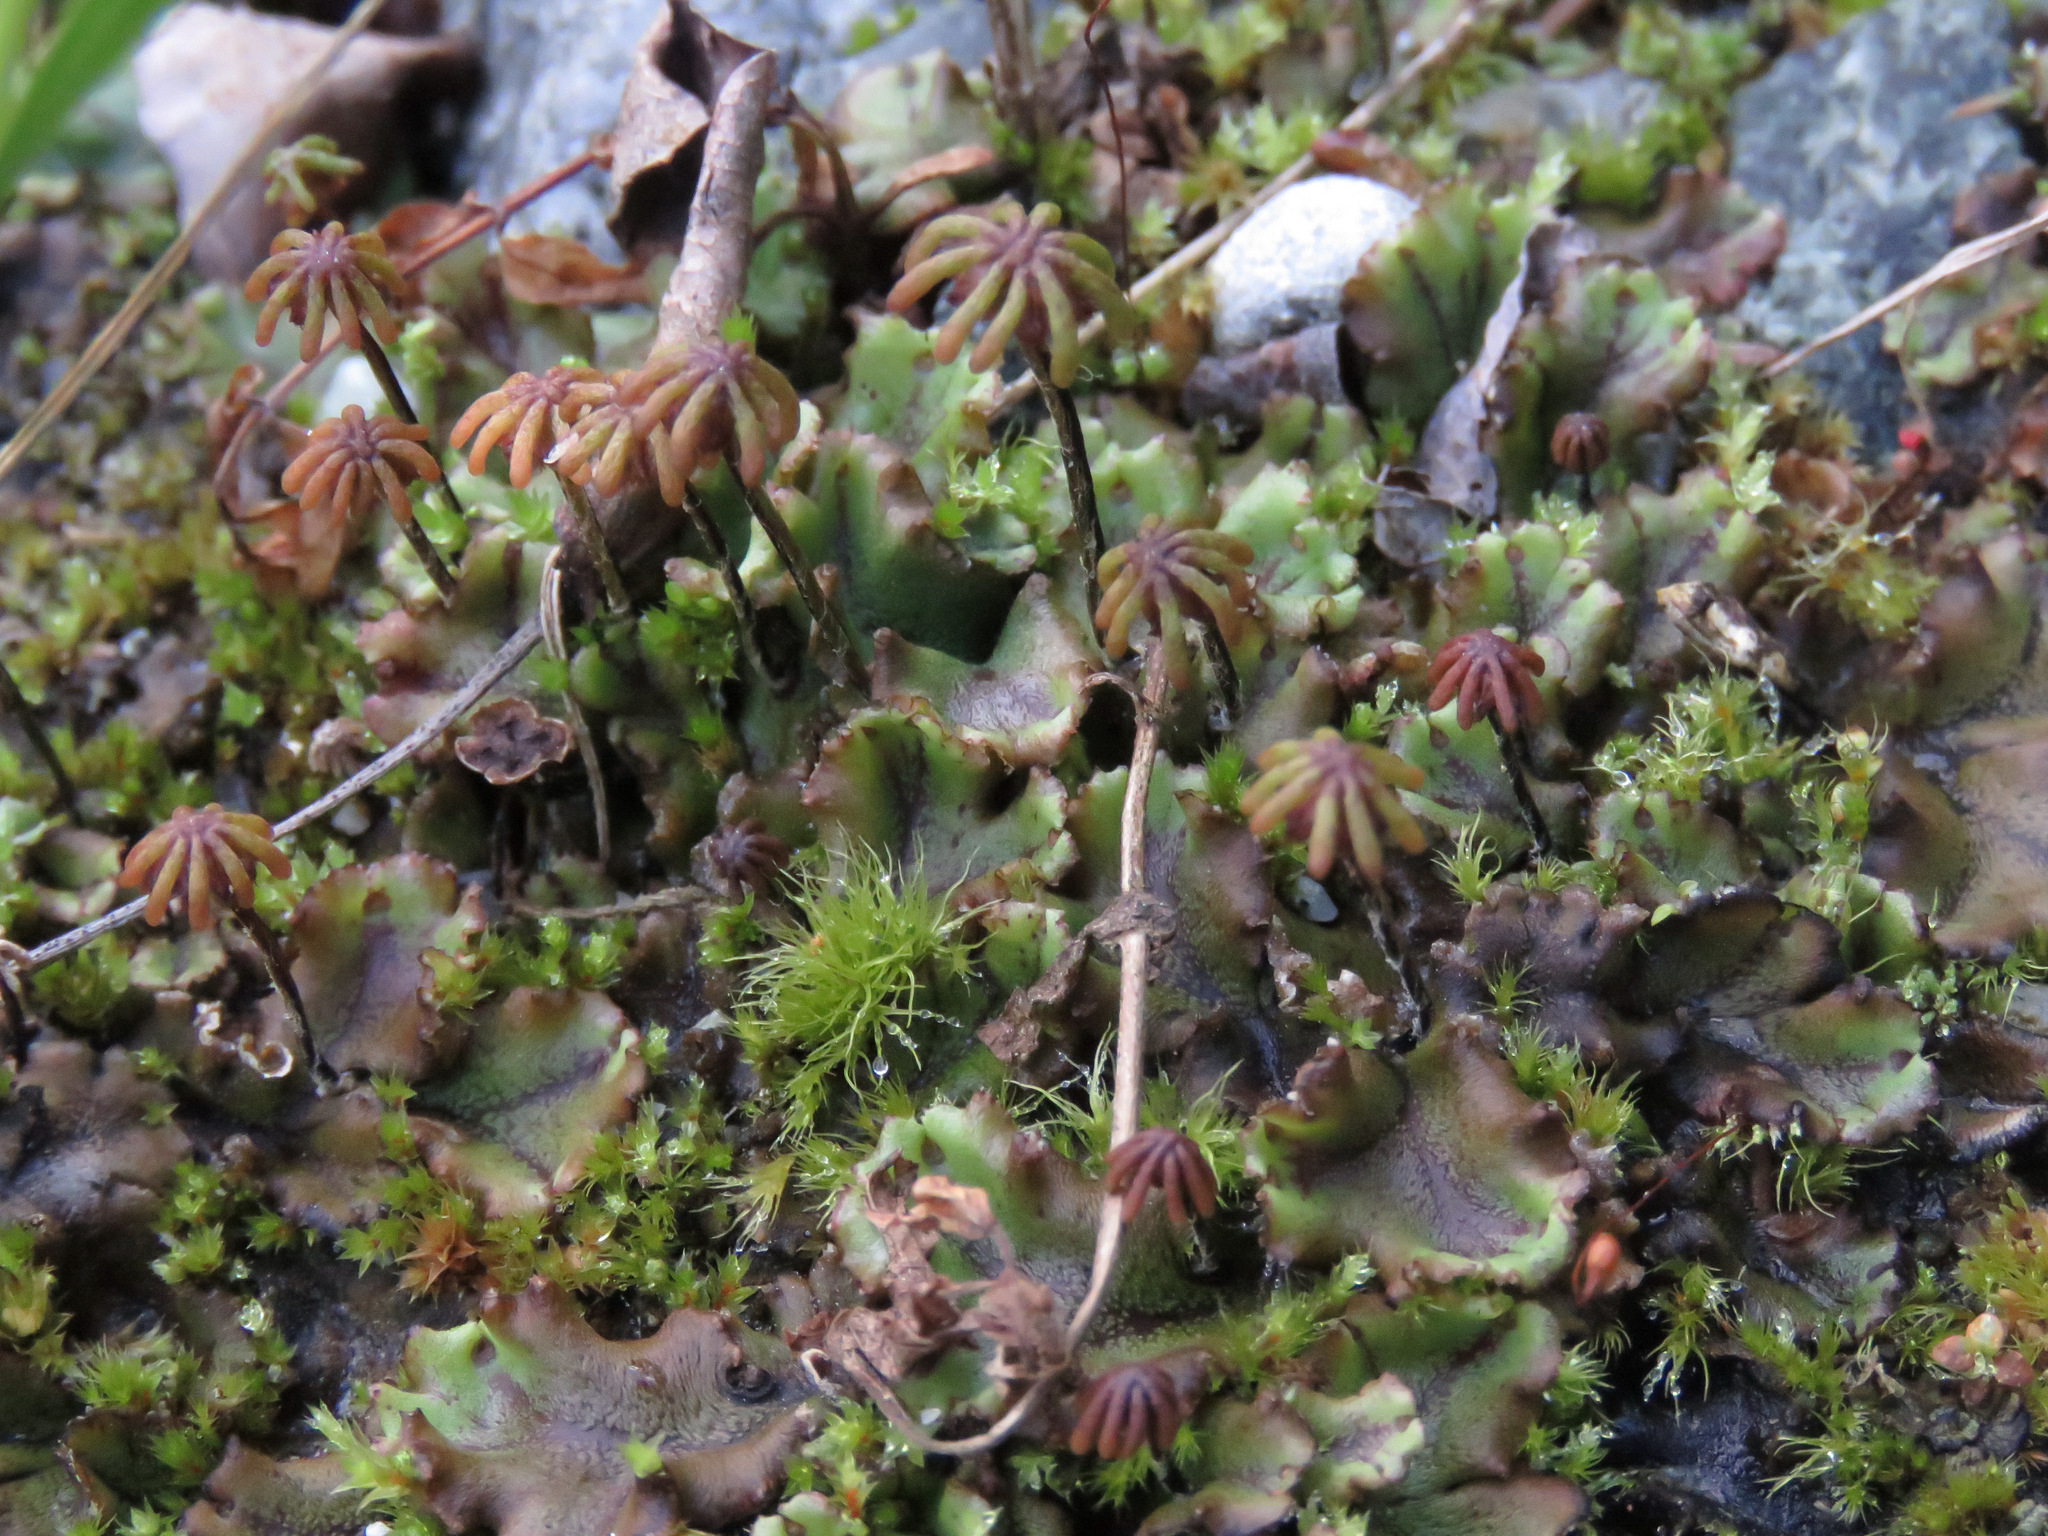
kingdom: Plantae
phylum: Marchantiophyta
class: Marchantiopsida
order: Marchantiales
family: Marchantiaceae
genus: Marchantia
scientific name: Marchantia polymorpha
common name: Common liverwort
